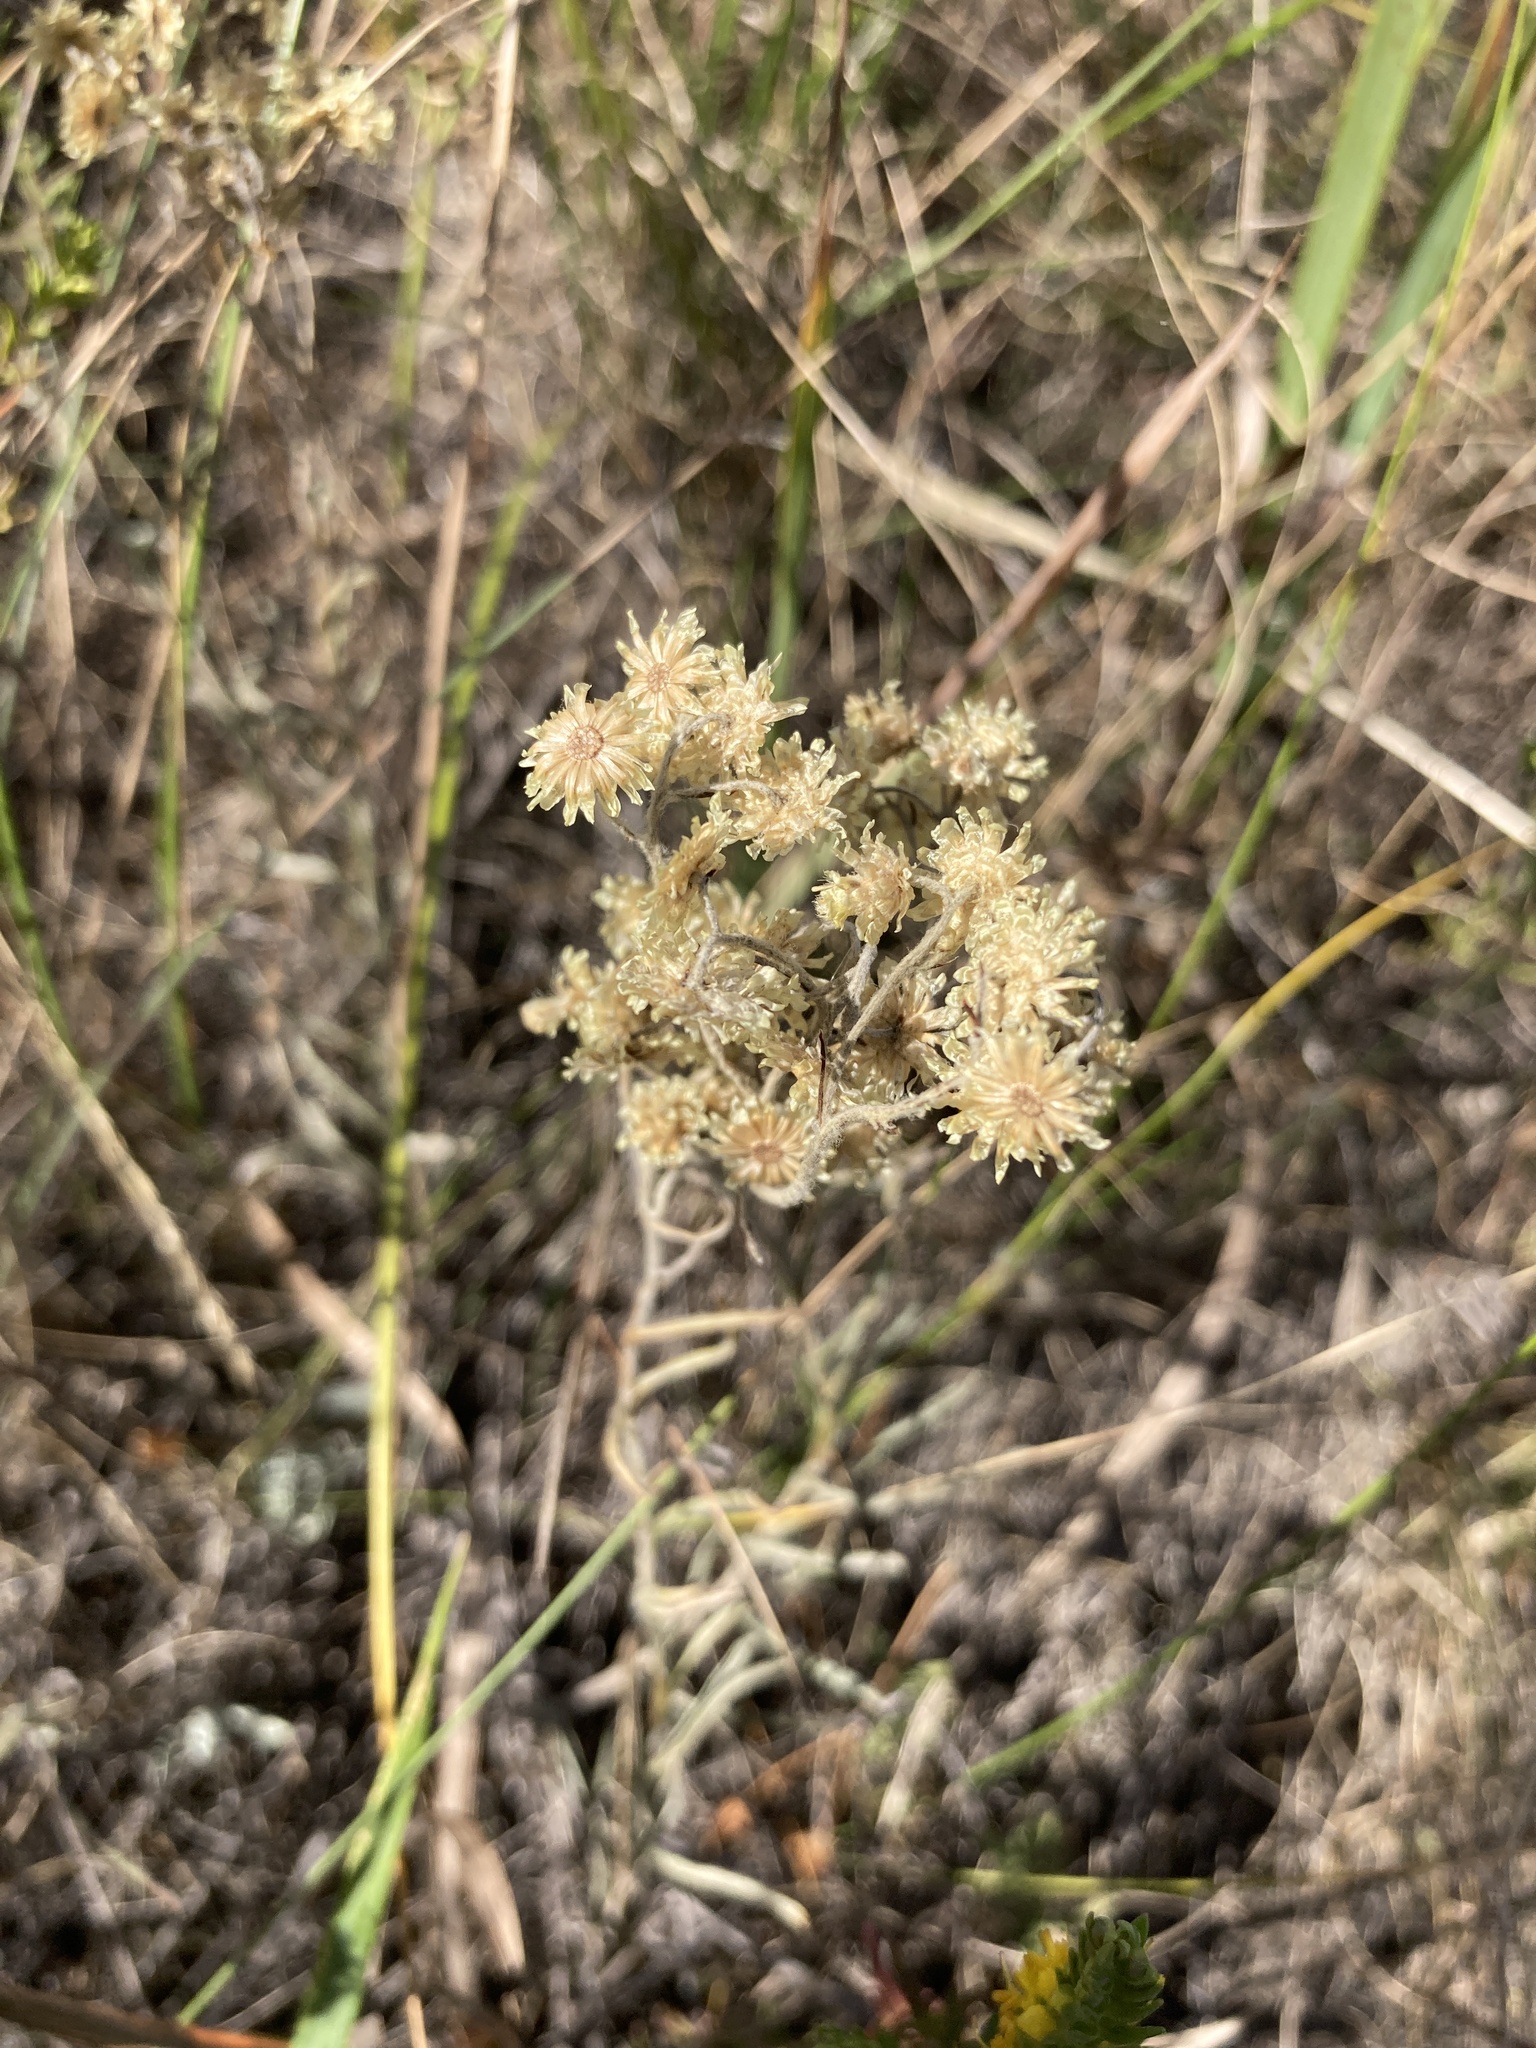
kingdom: Plantae
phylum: Tracheophyta
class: Magnoliopsida
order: Asterales
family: Asteraceae
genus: Helichrysum
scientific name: Helichrysum arenarium
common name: Strawflower
